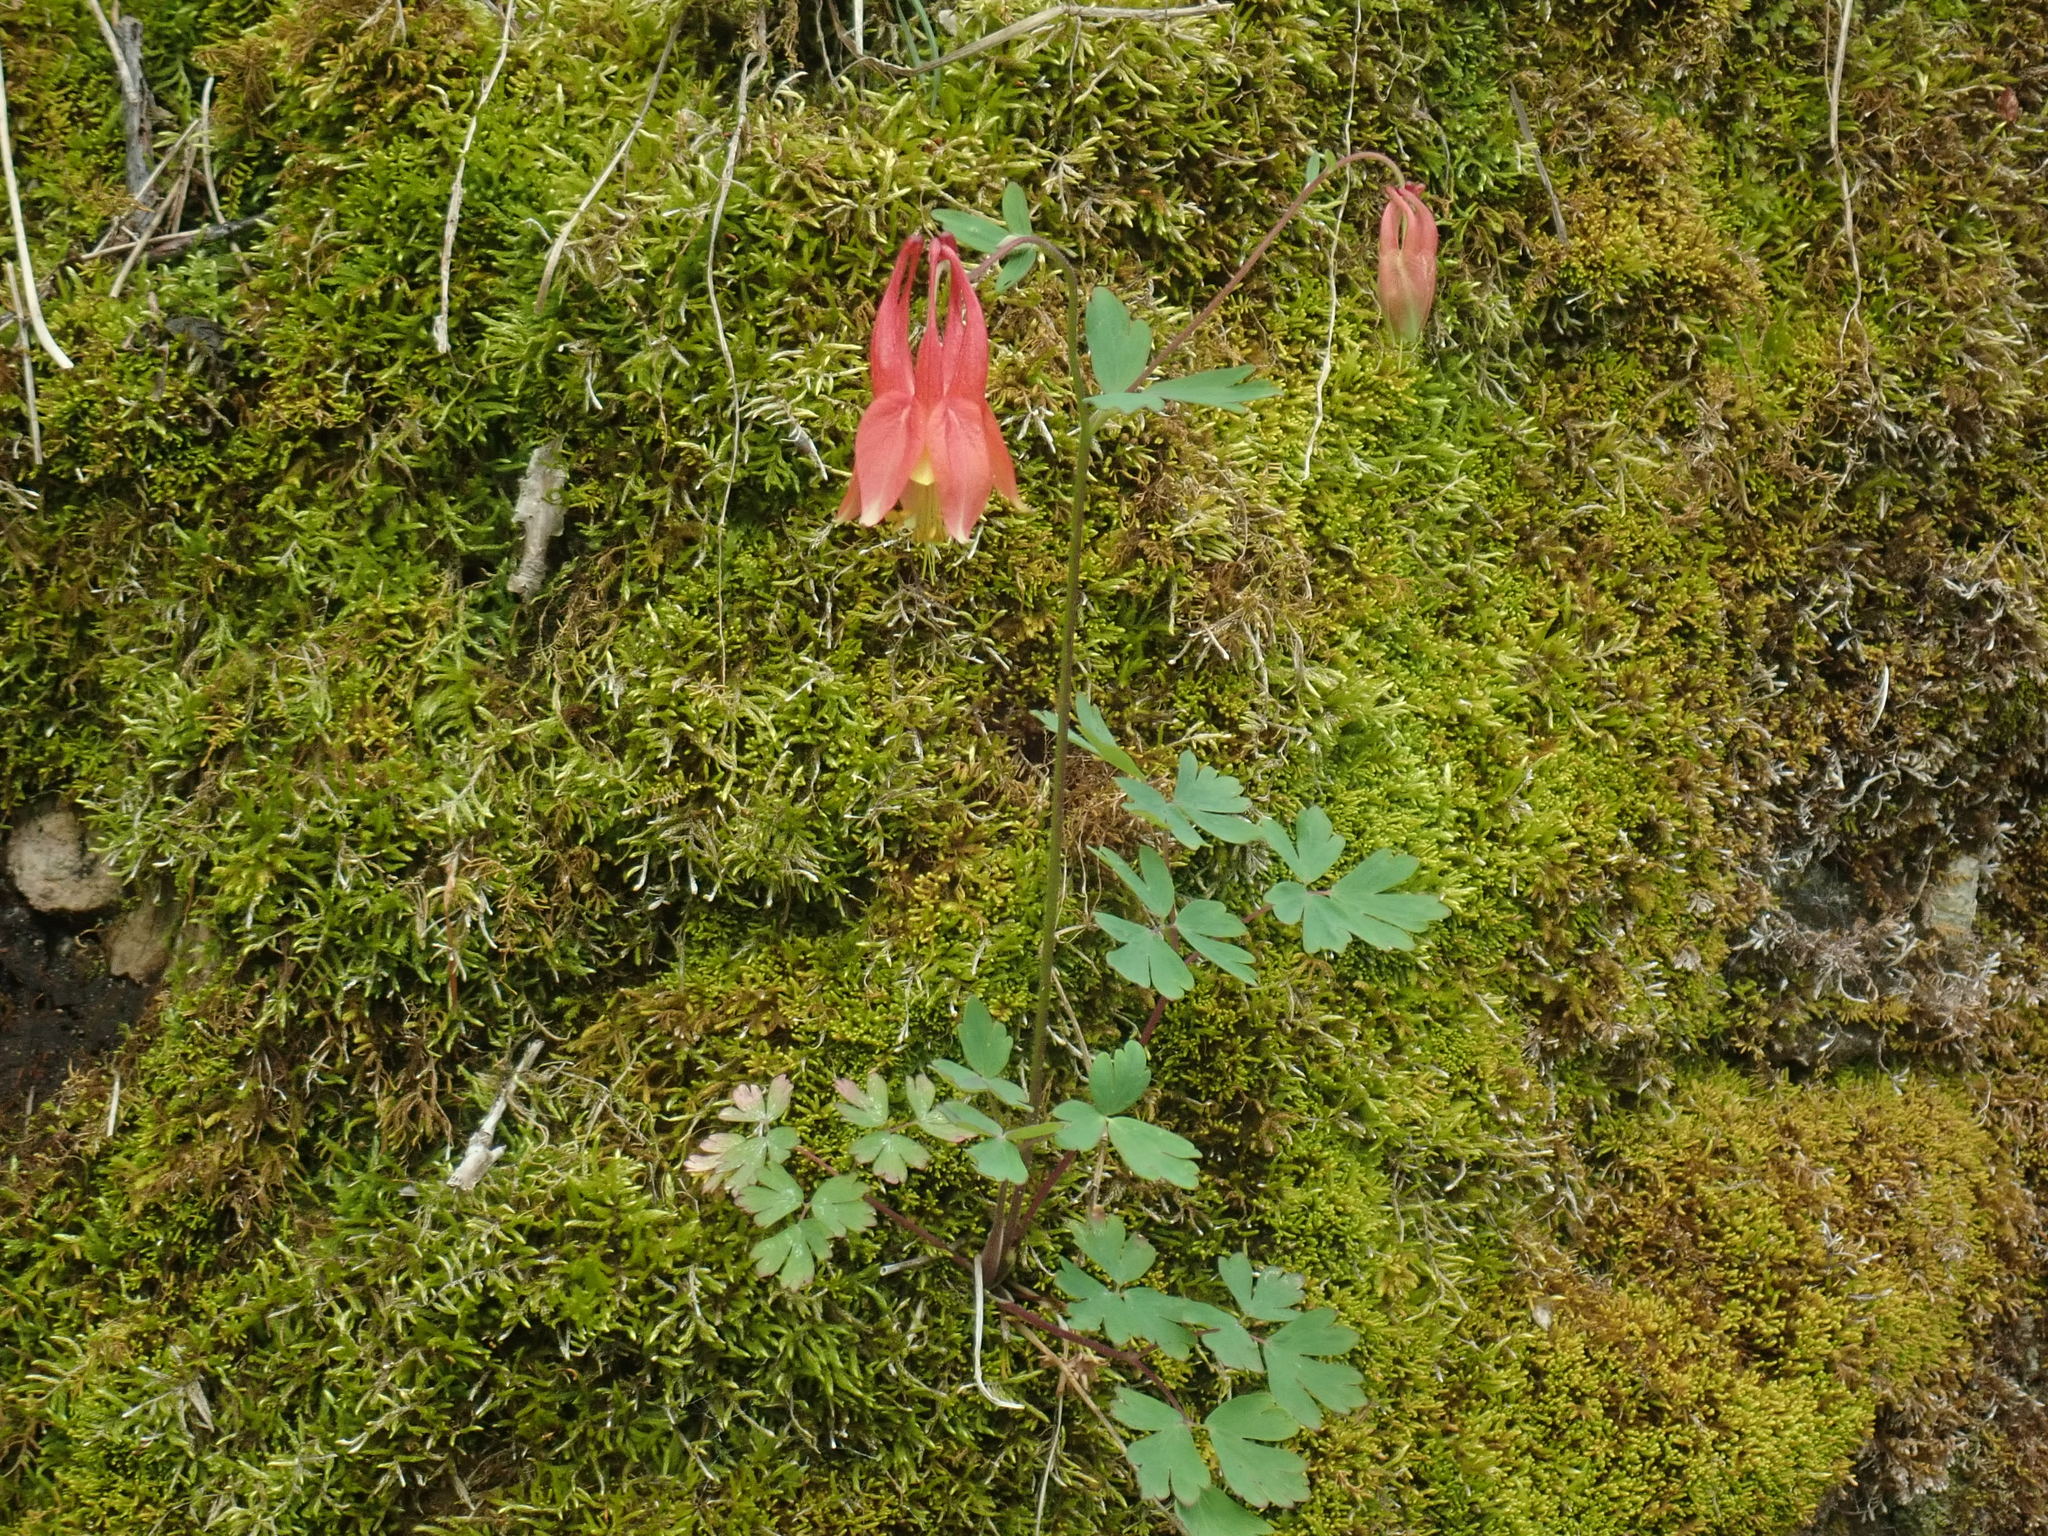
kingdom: Plantae
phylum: Tracheophyta
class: Magnoliopsida
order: Ranunculales
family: Ranunculaceae
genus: Aquilegia
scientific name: Aquilegia canadensis
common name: American columbine
